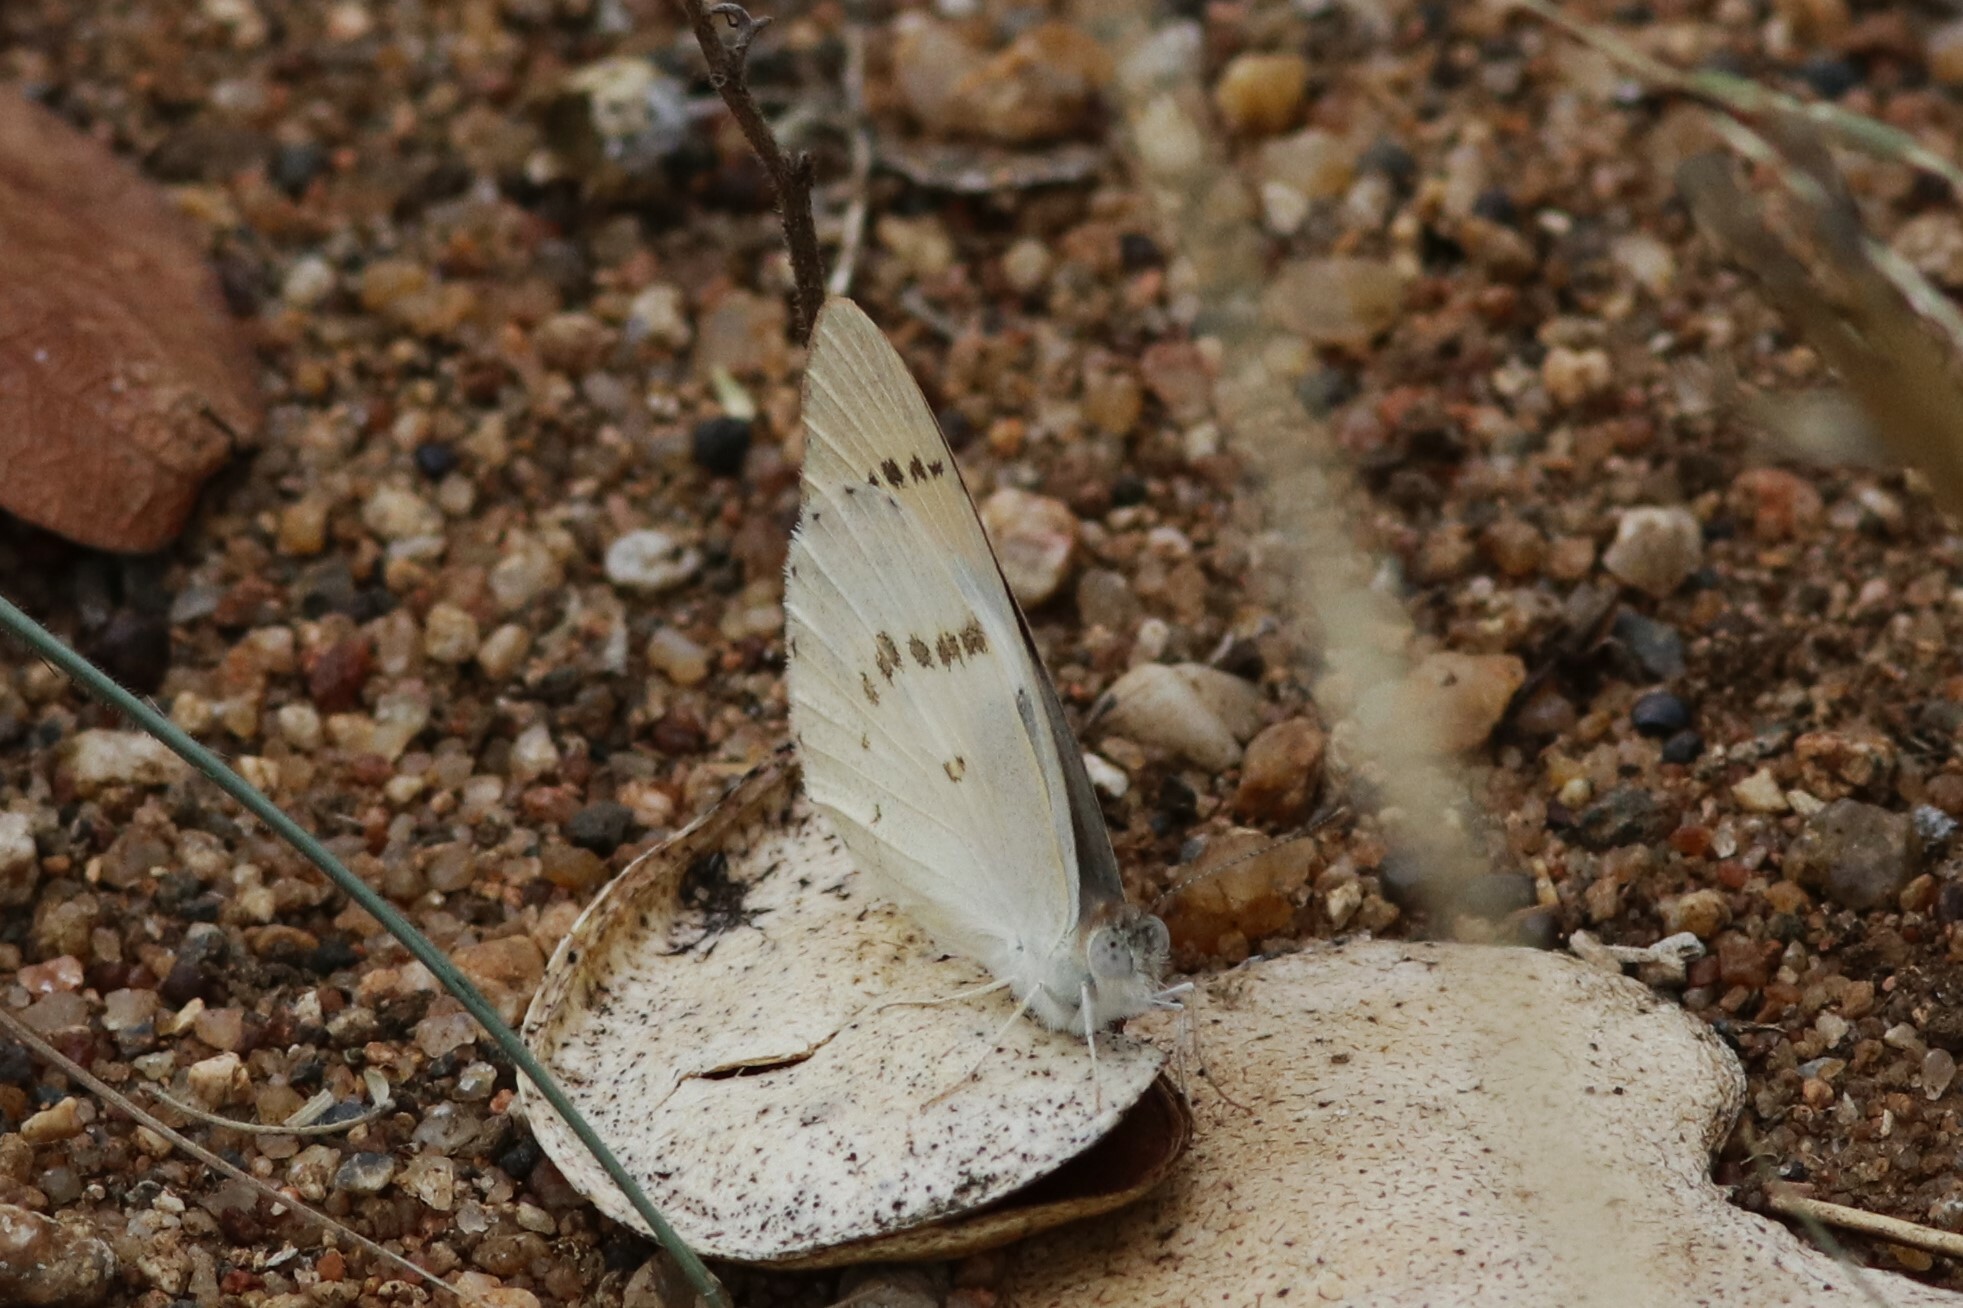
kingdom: Animalia
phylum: Arthropoda
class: Insecta
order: Lepidoptera
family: Pieridae
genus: Colotis
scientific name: Colotis annae
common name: Scarlet tip
